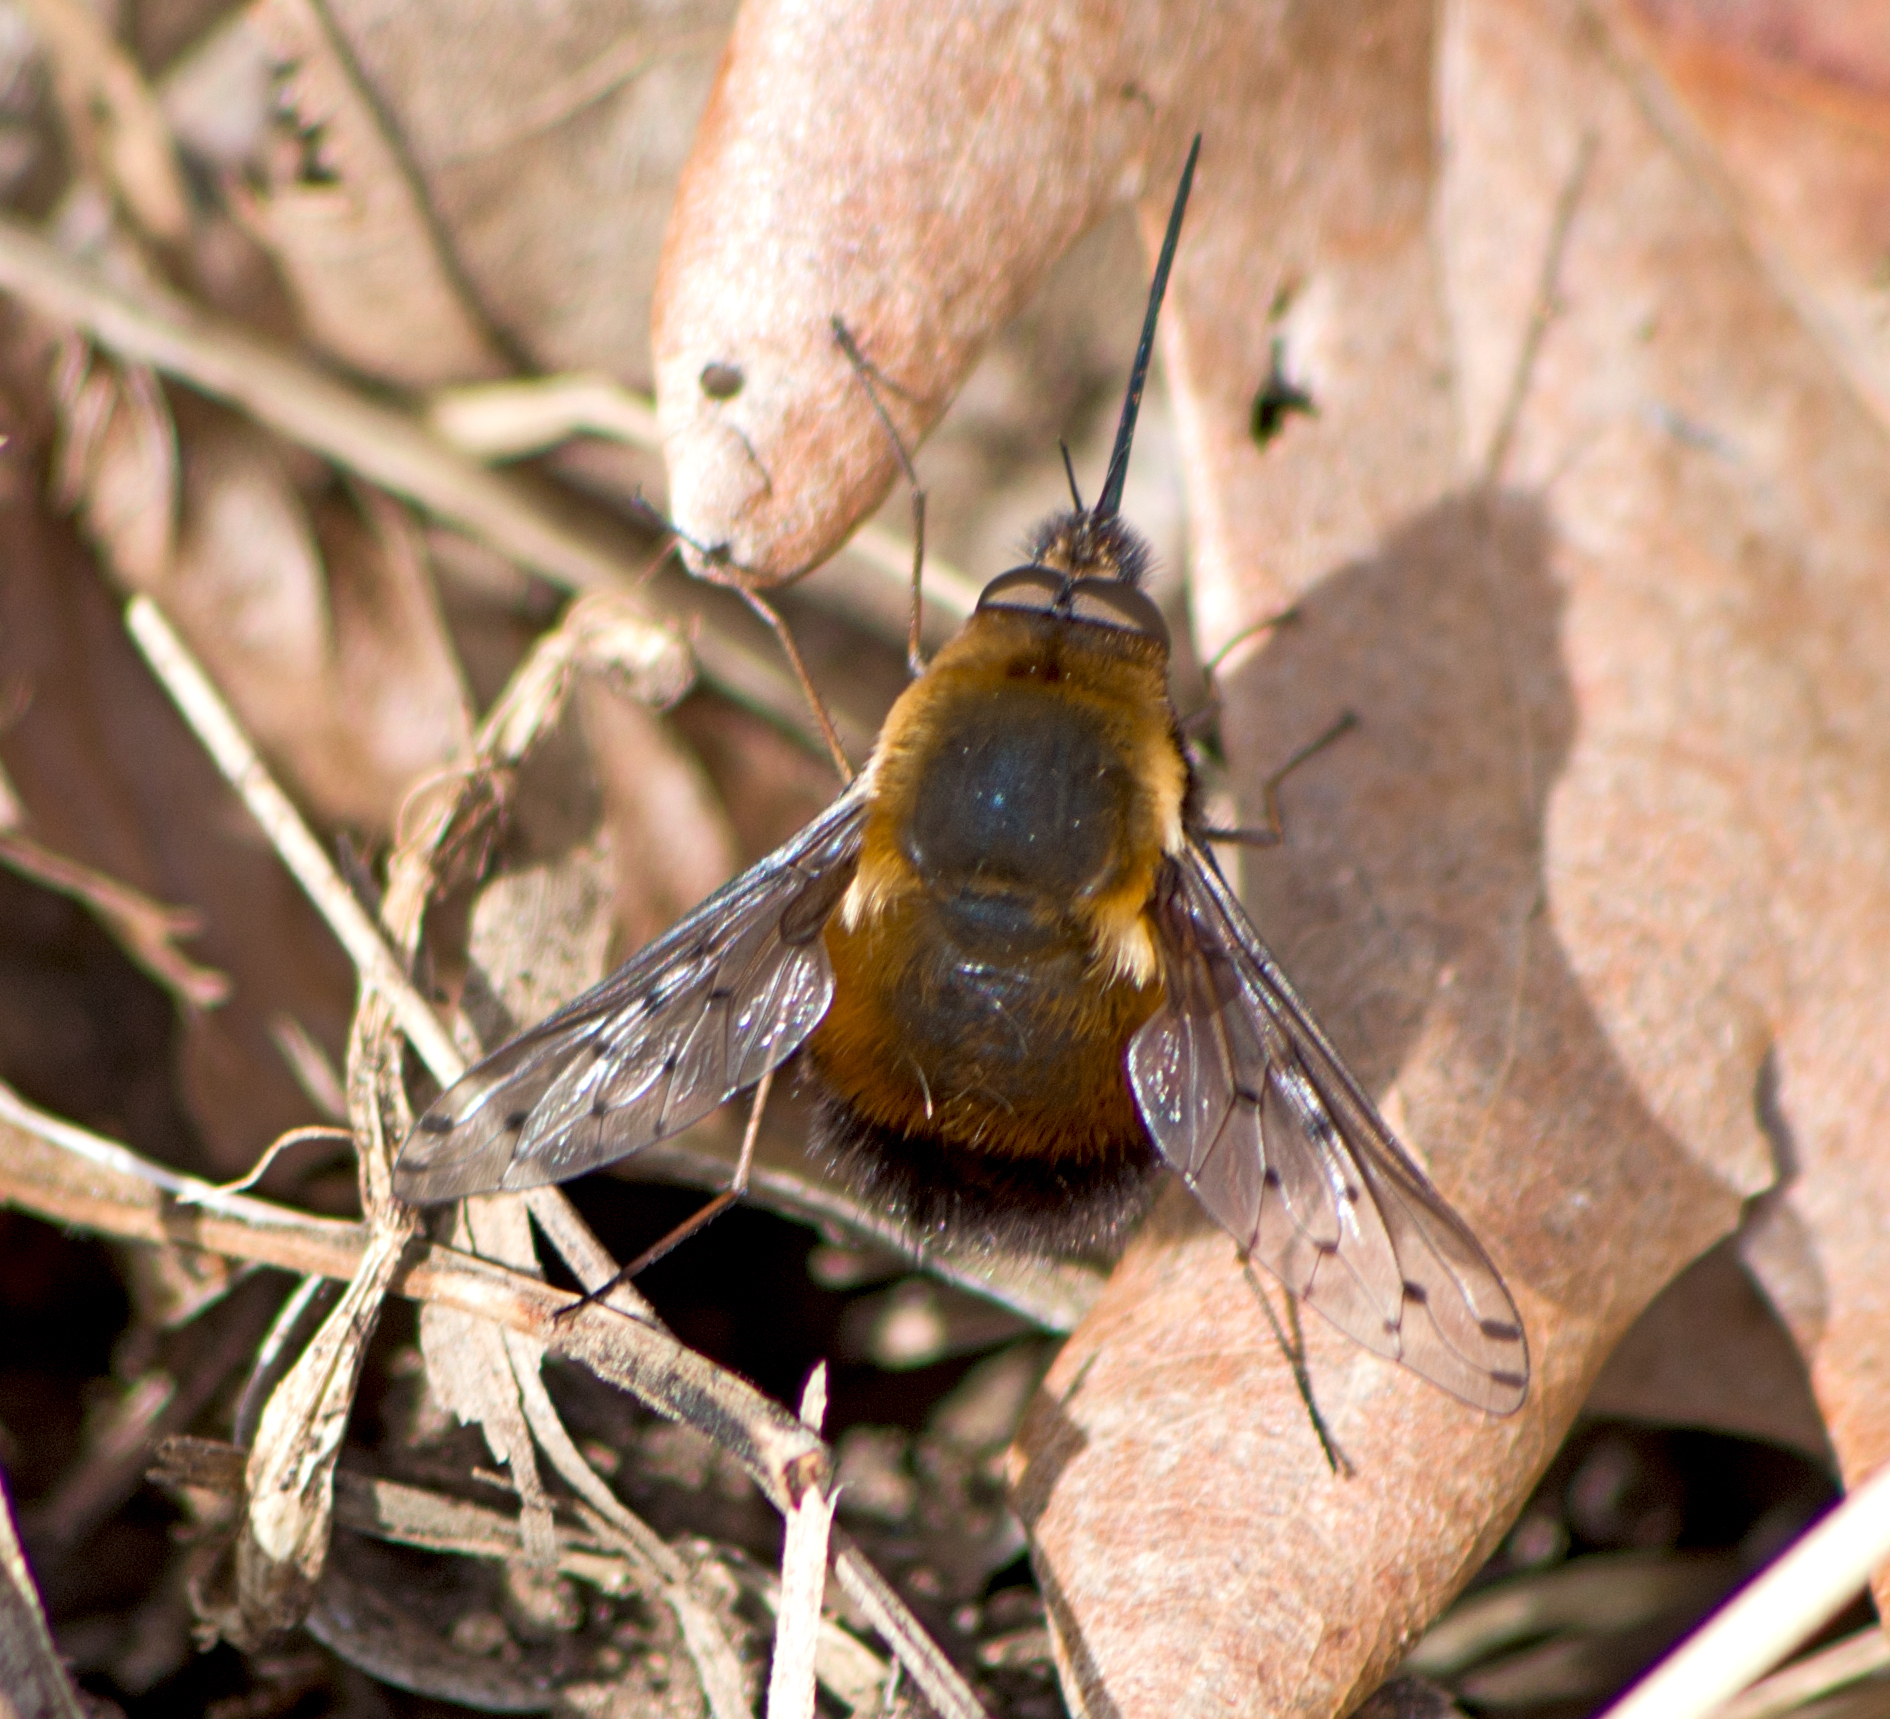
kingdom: Animalia
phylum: Arthropoda
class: Insecta
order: Diptera
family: Bombyliidae
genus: Bombylius
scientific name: Bombylius discolor
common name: Dotted bee-fly
